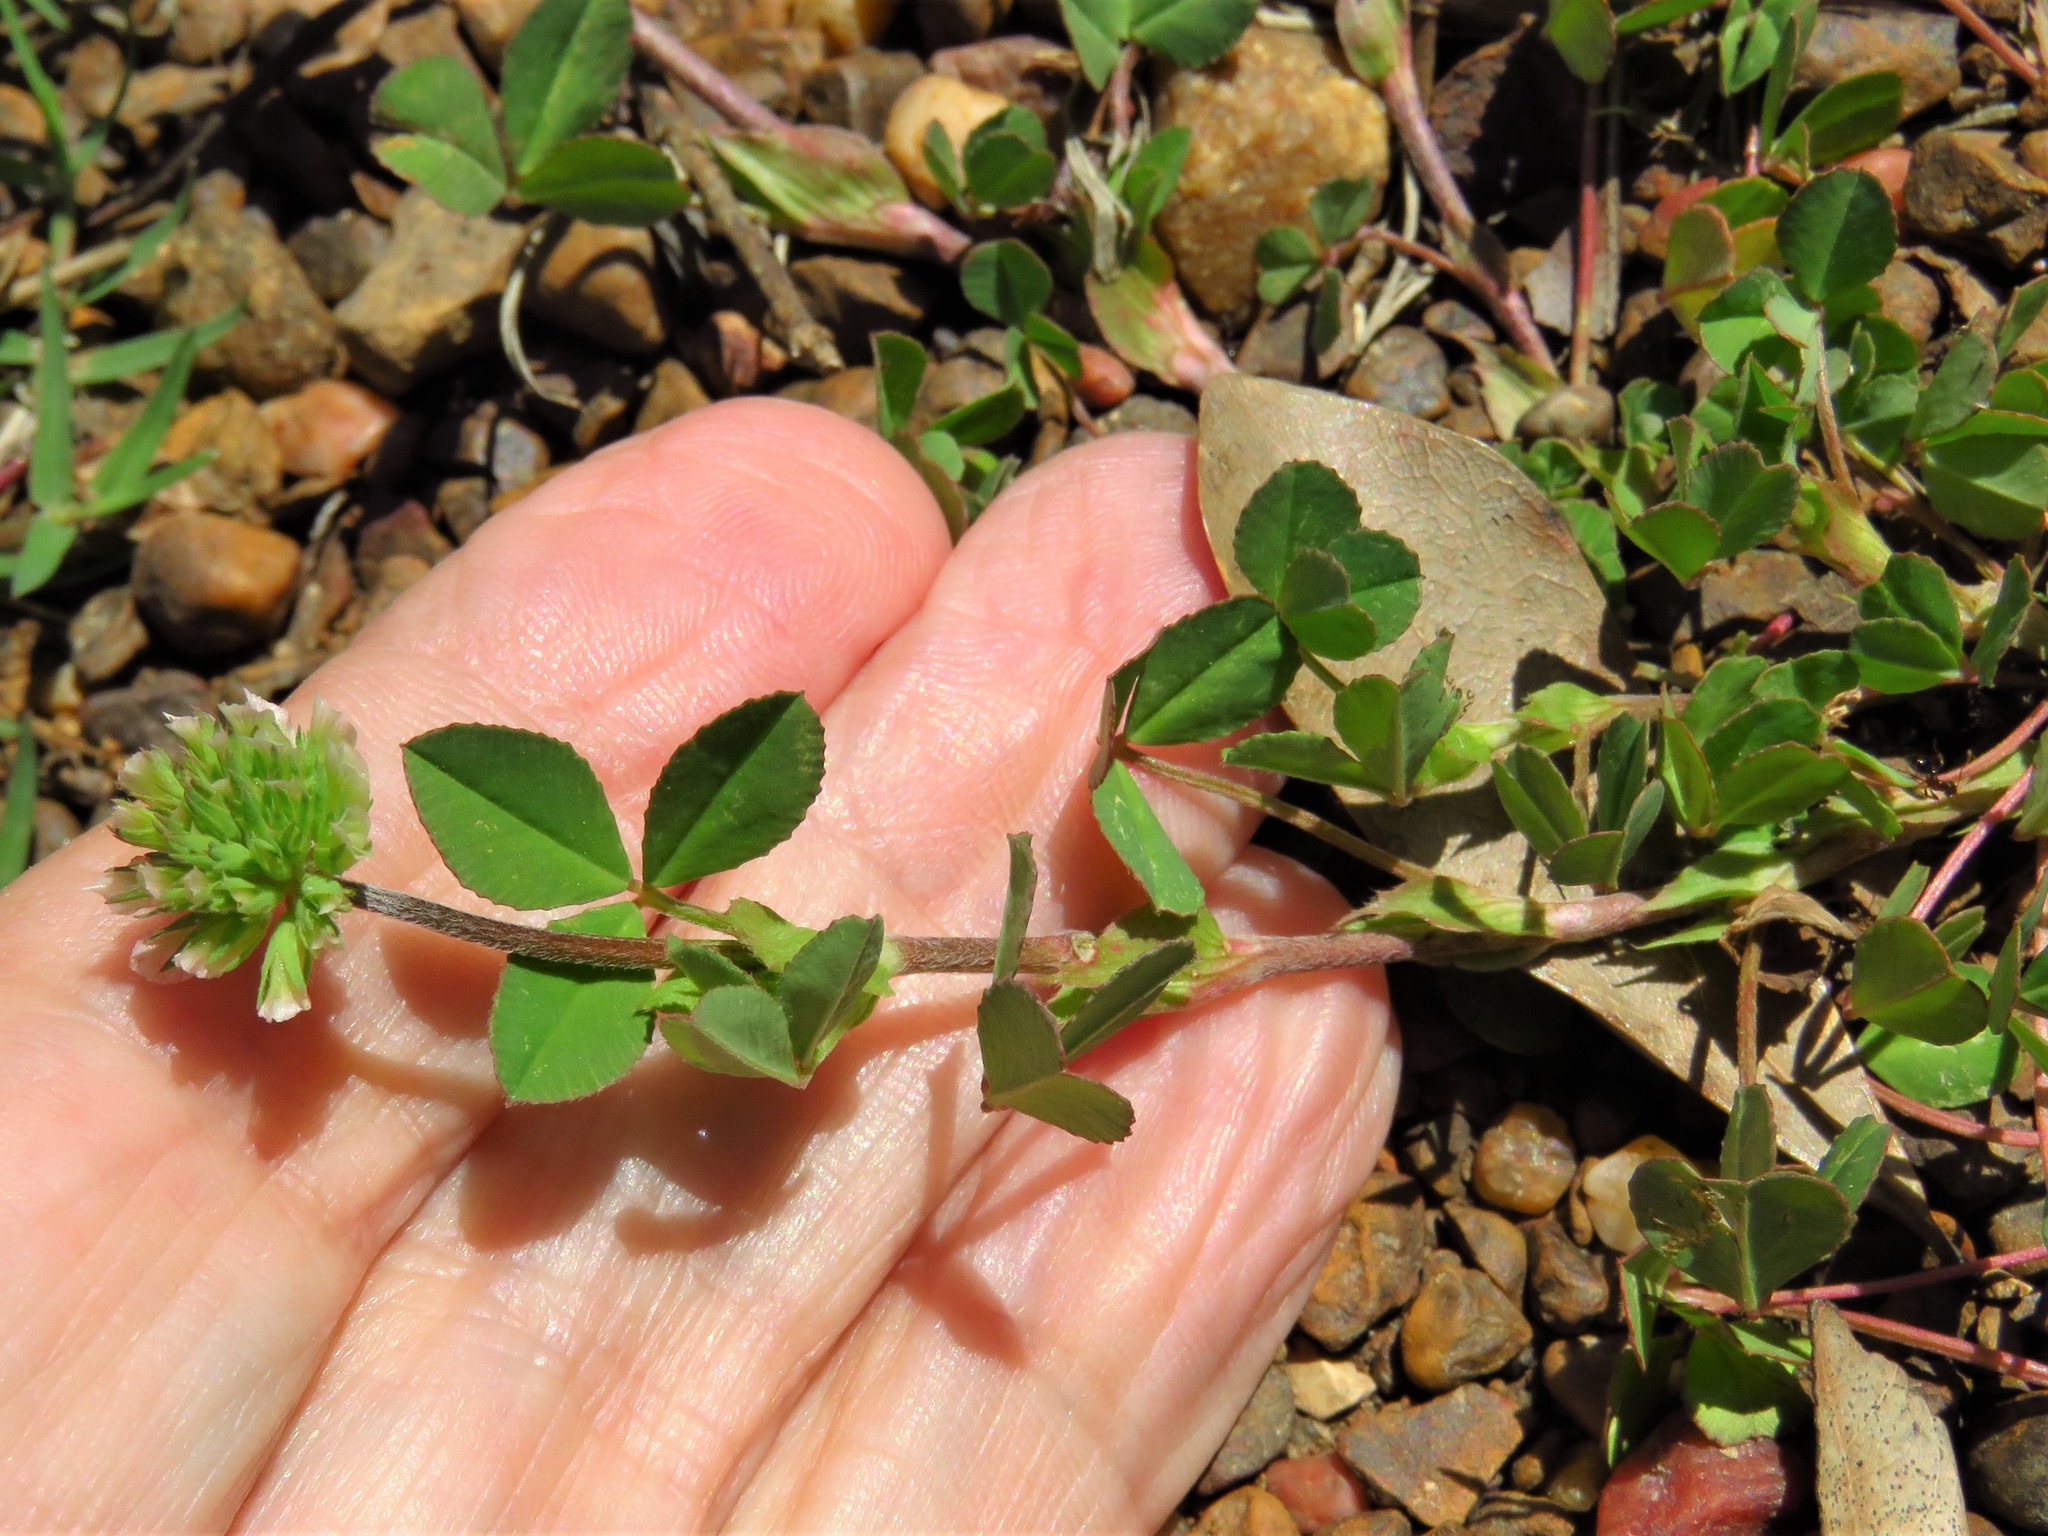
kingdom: Plantae
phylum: Tracheophyta
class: Magnoliopsida
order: Fabales
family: Fabaceae
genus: Trifolium
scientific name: Trifolium carolinianum
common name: Wild white clover
